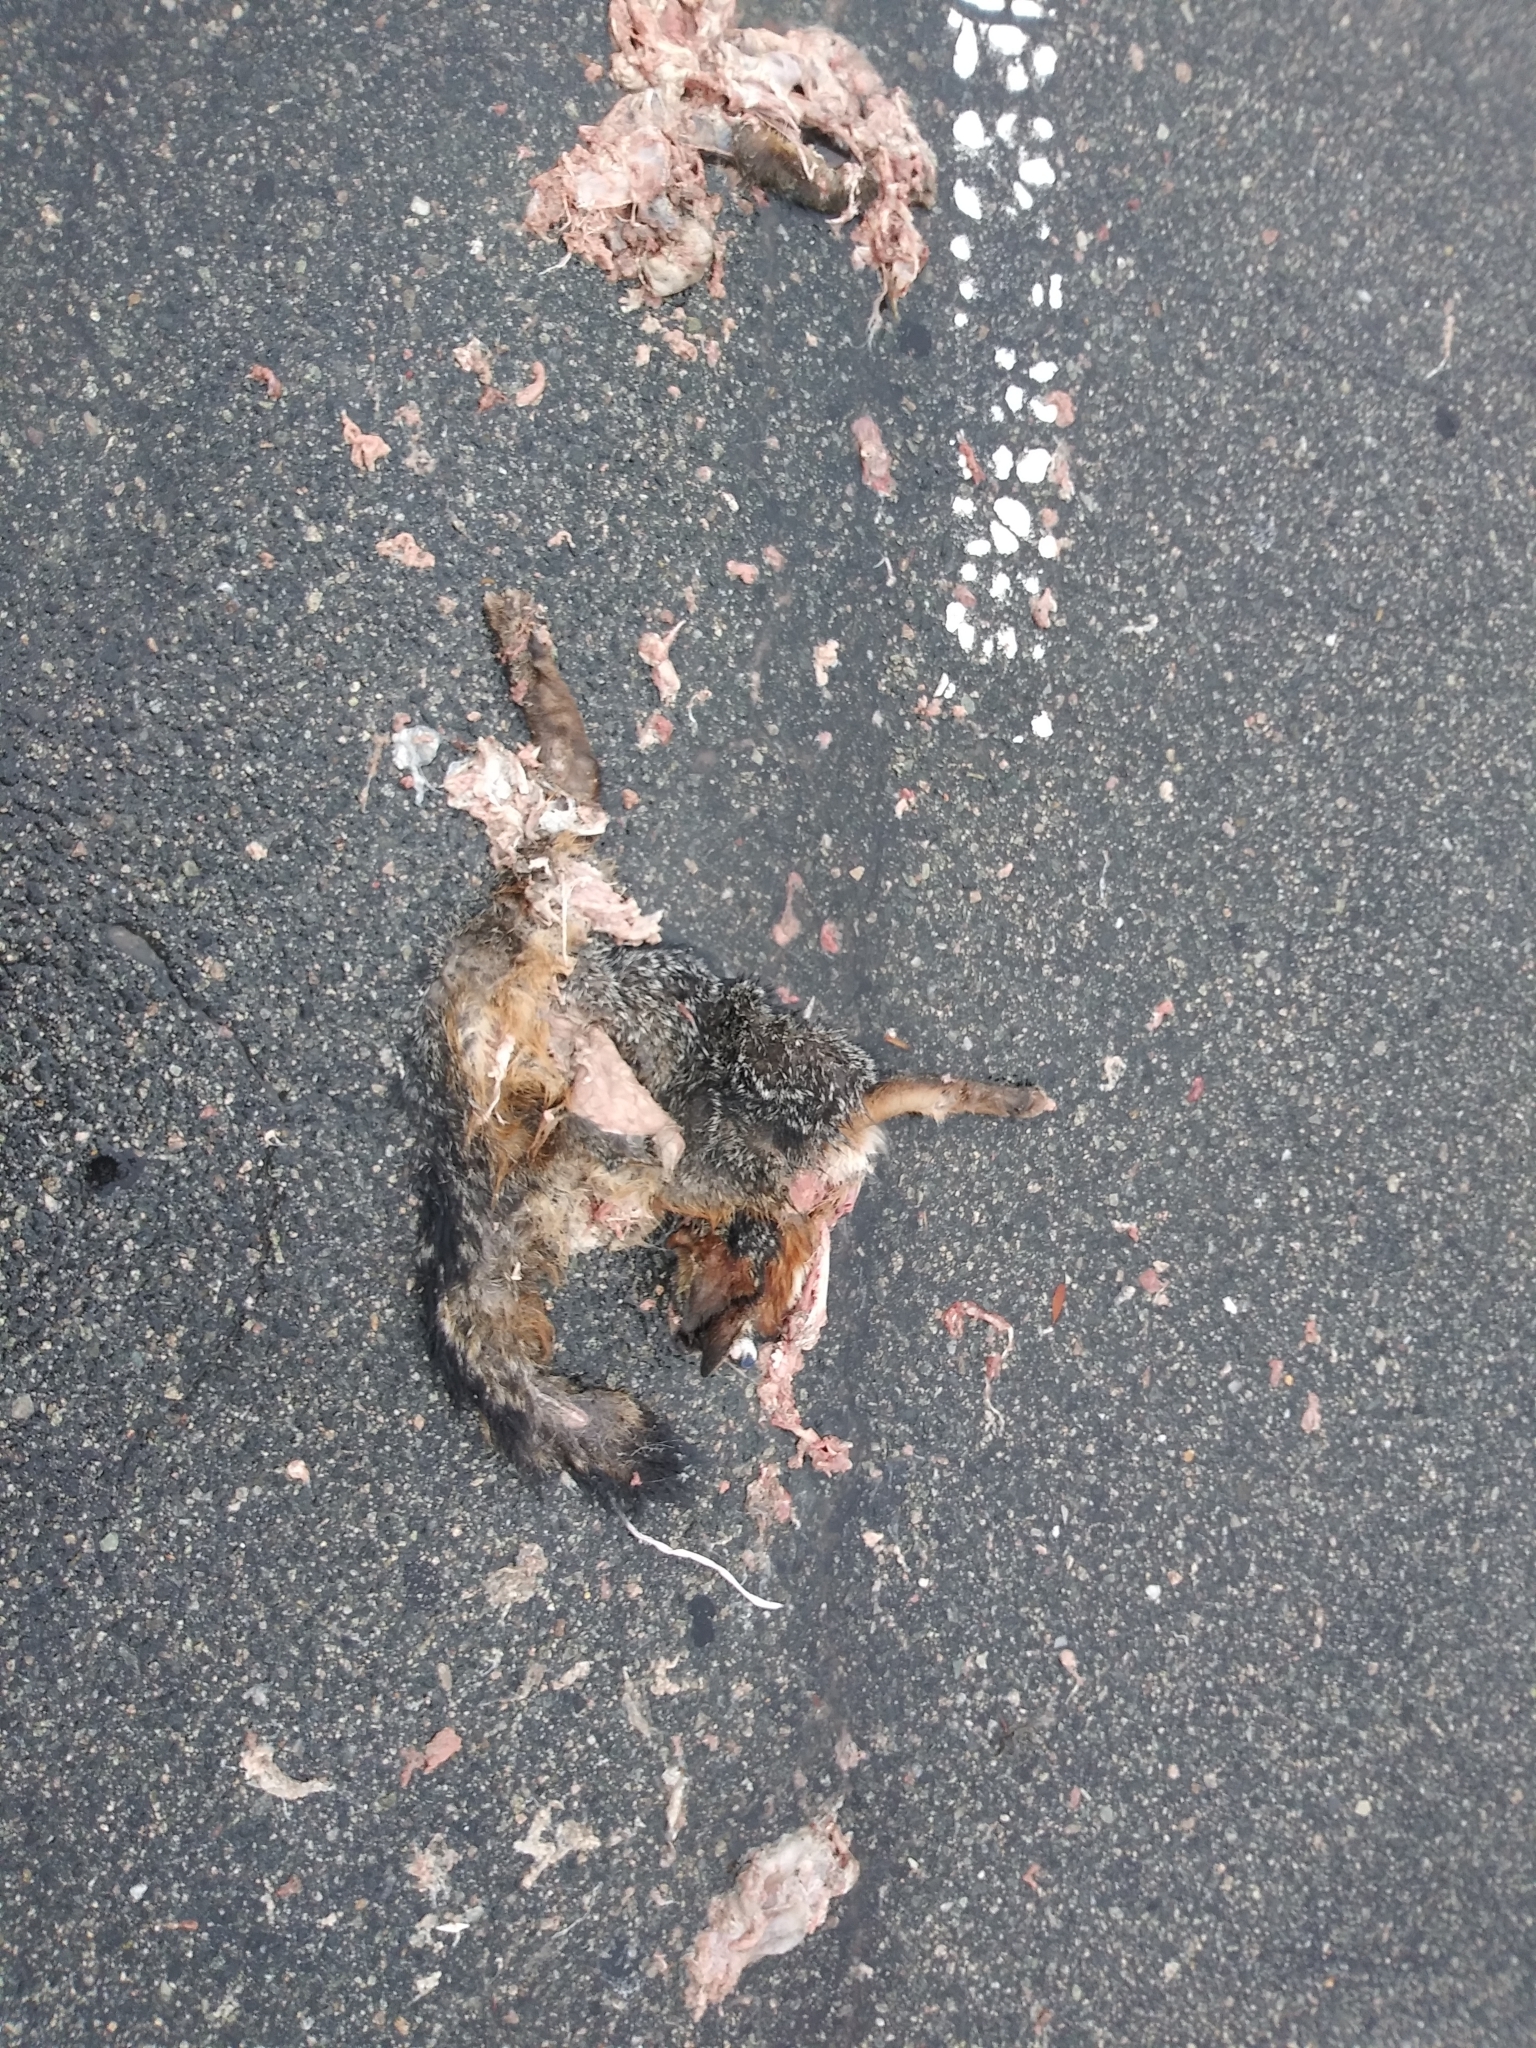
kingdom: Animalia
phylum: Chordata
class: Mammalia
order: Carnivora
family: Canidae
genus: Urocyon
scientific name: Urocyon cinereoargenteus
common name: Gray fox
